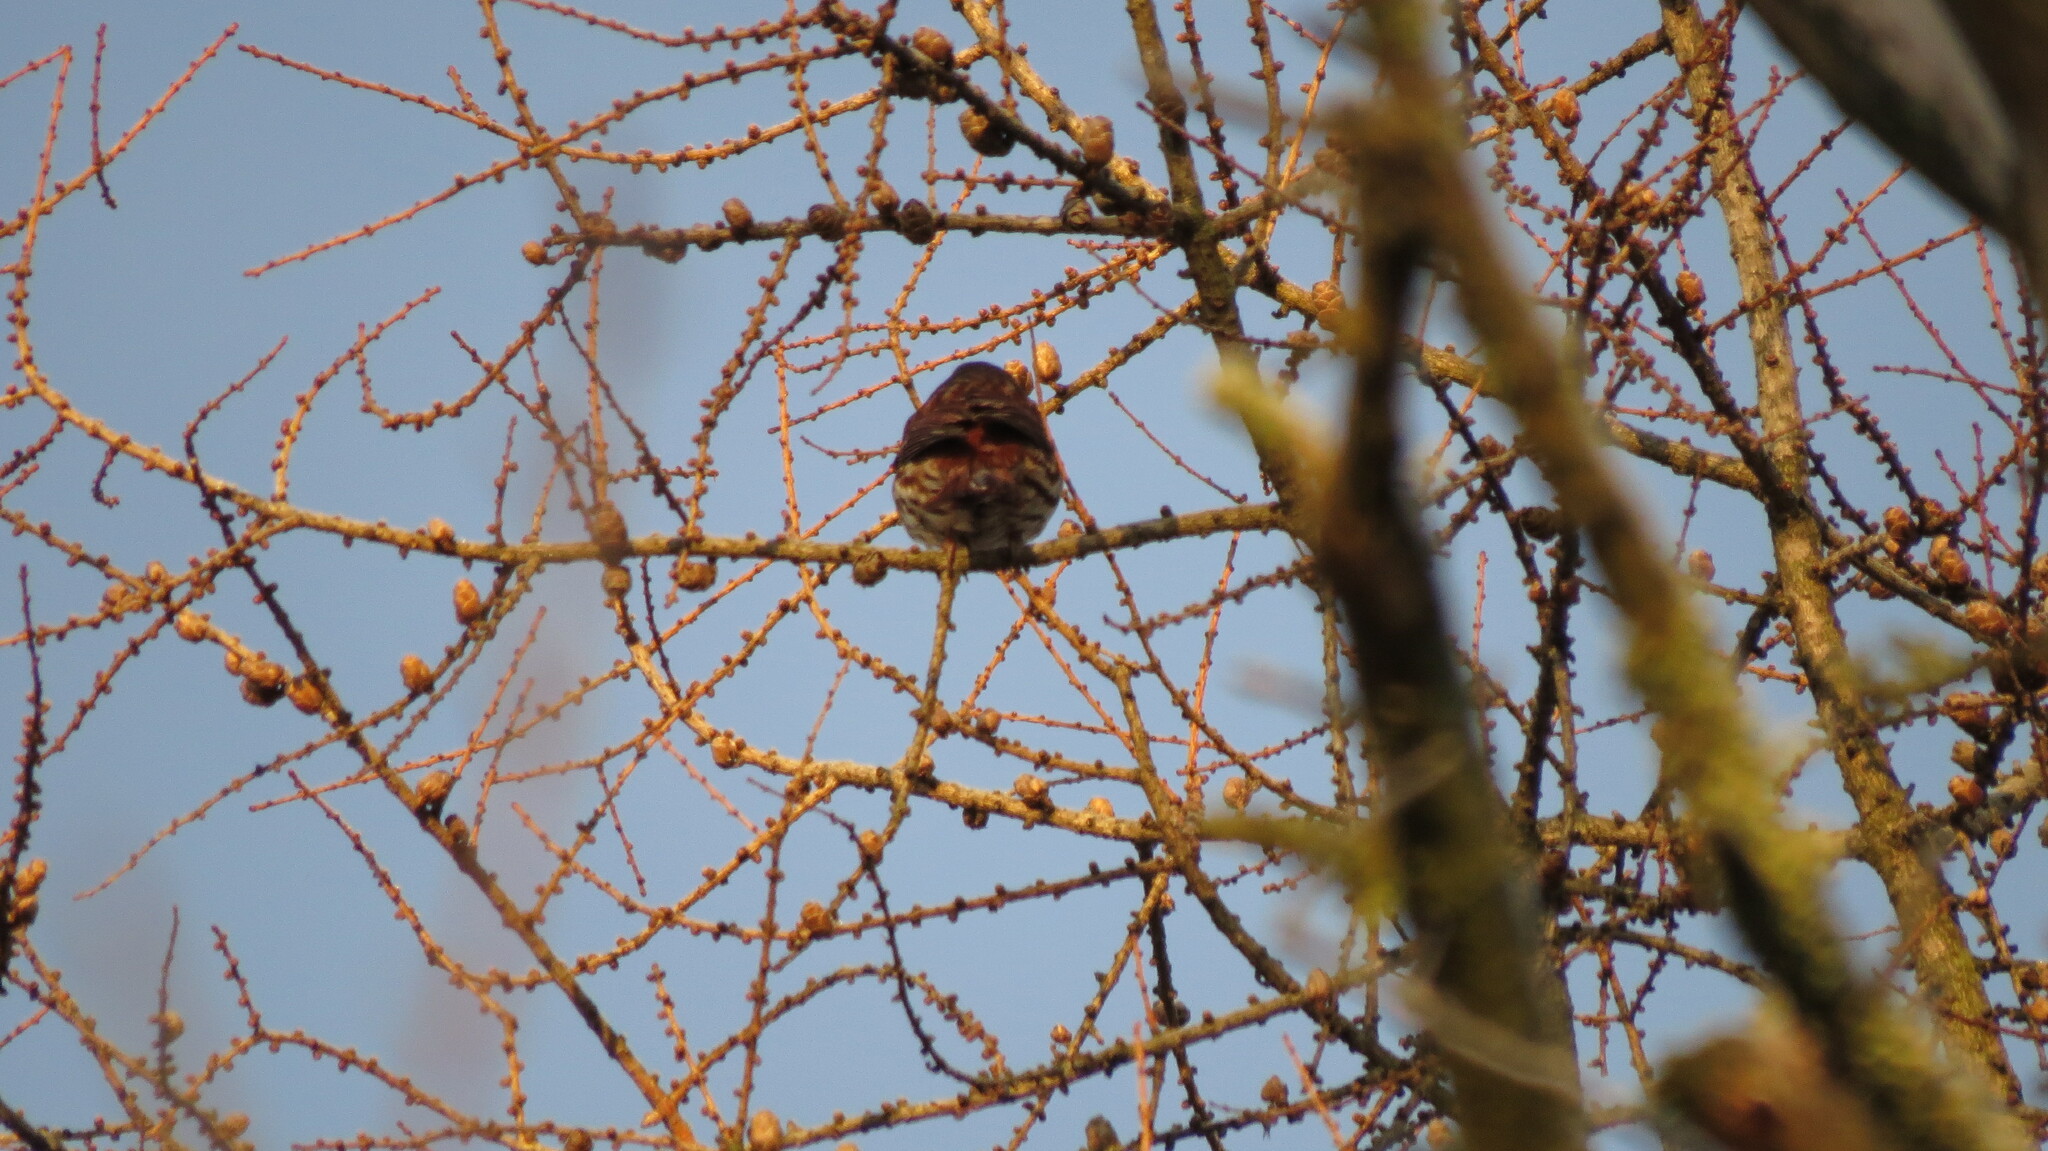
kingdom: Animalia
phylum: Chordata
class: Aves
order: Passeriformes
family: Passerellidae
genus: Passerella
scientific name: Passerella iliaca
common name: Fox sparrow
